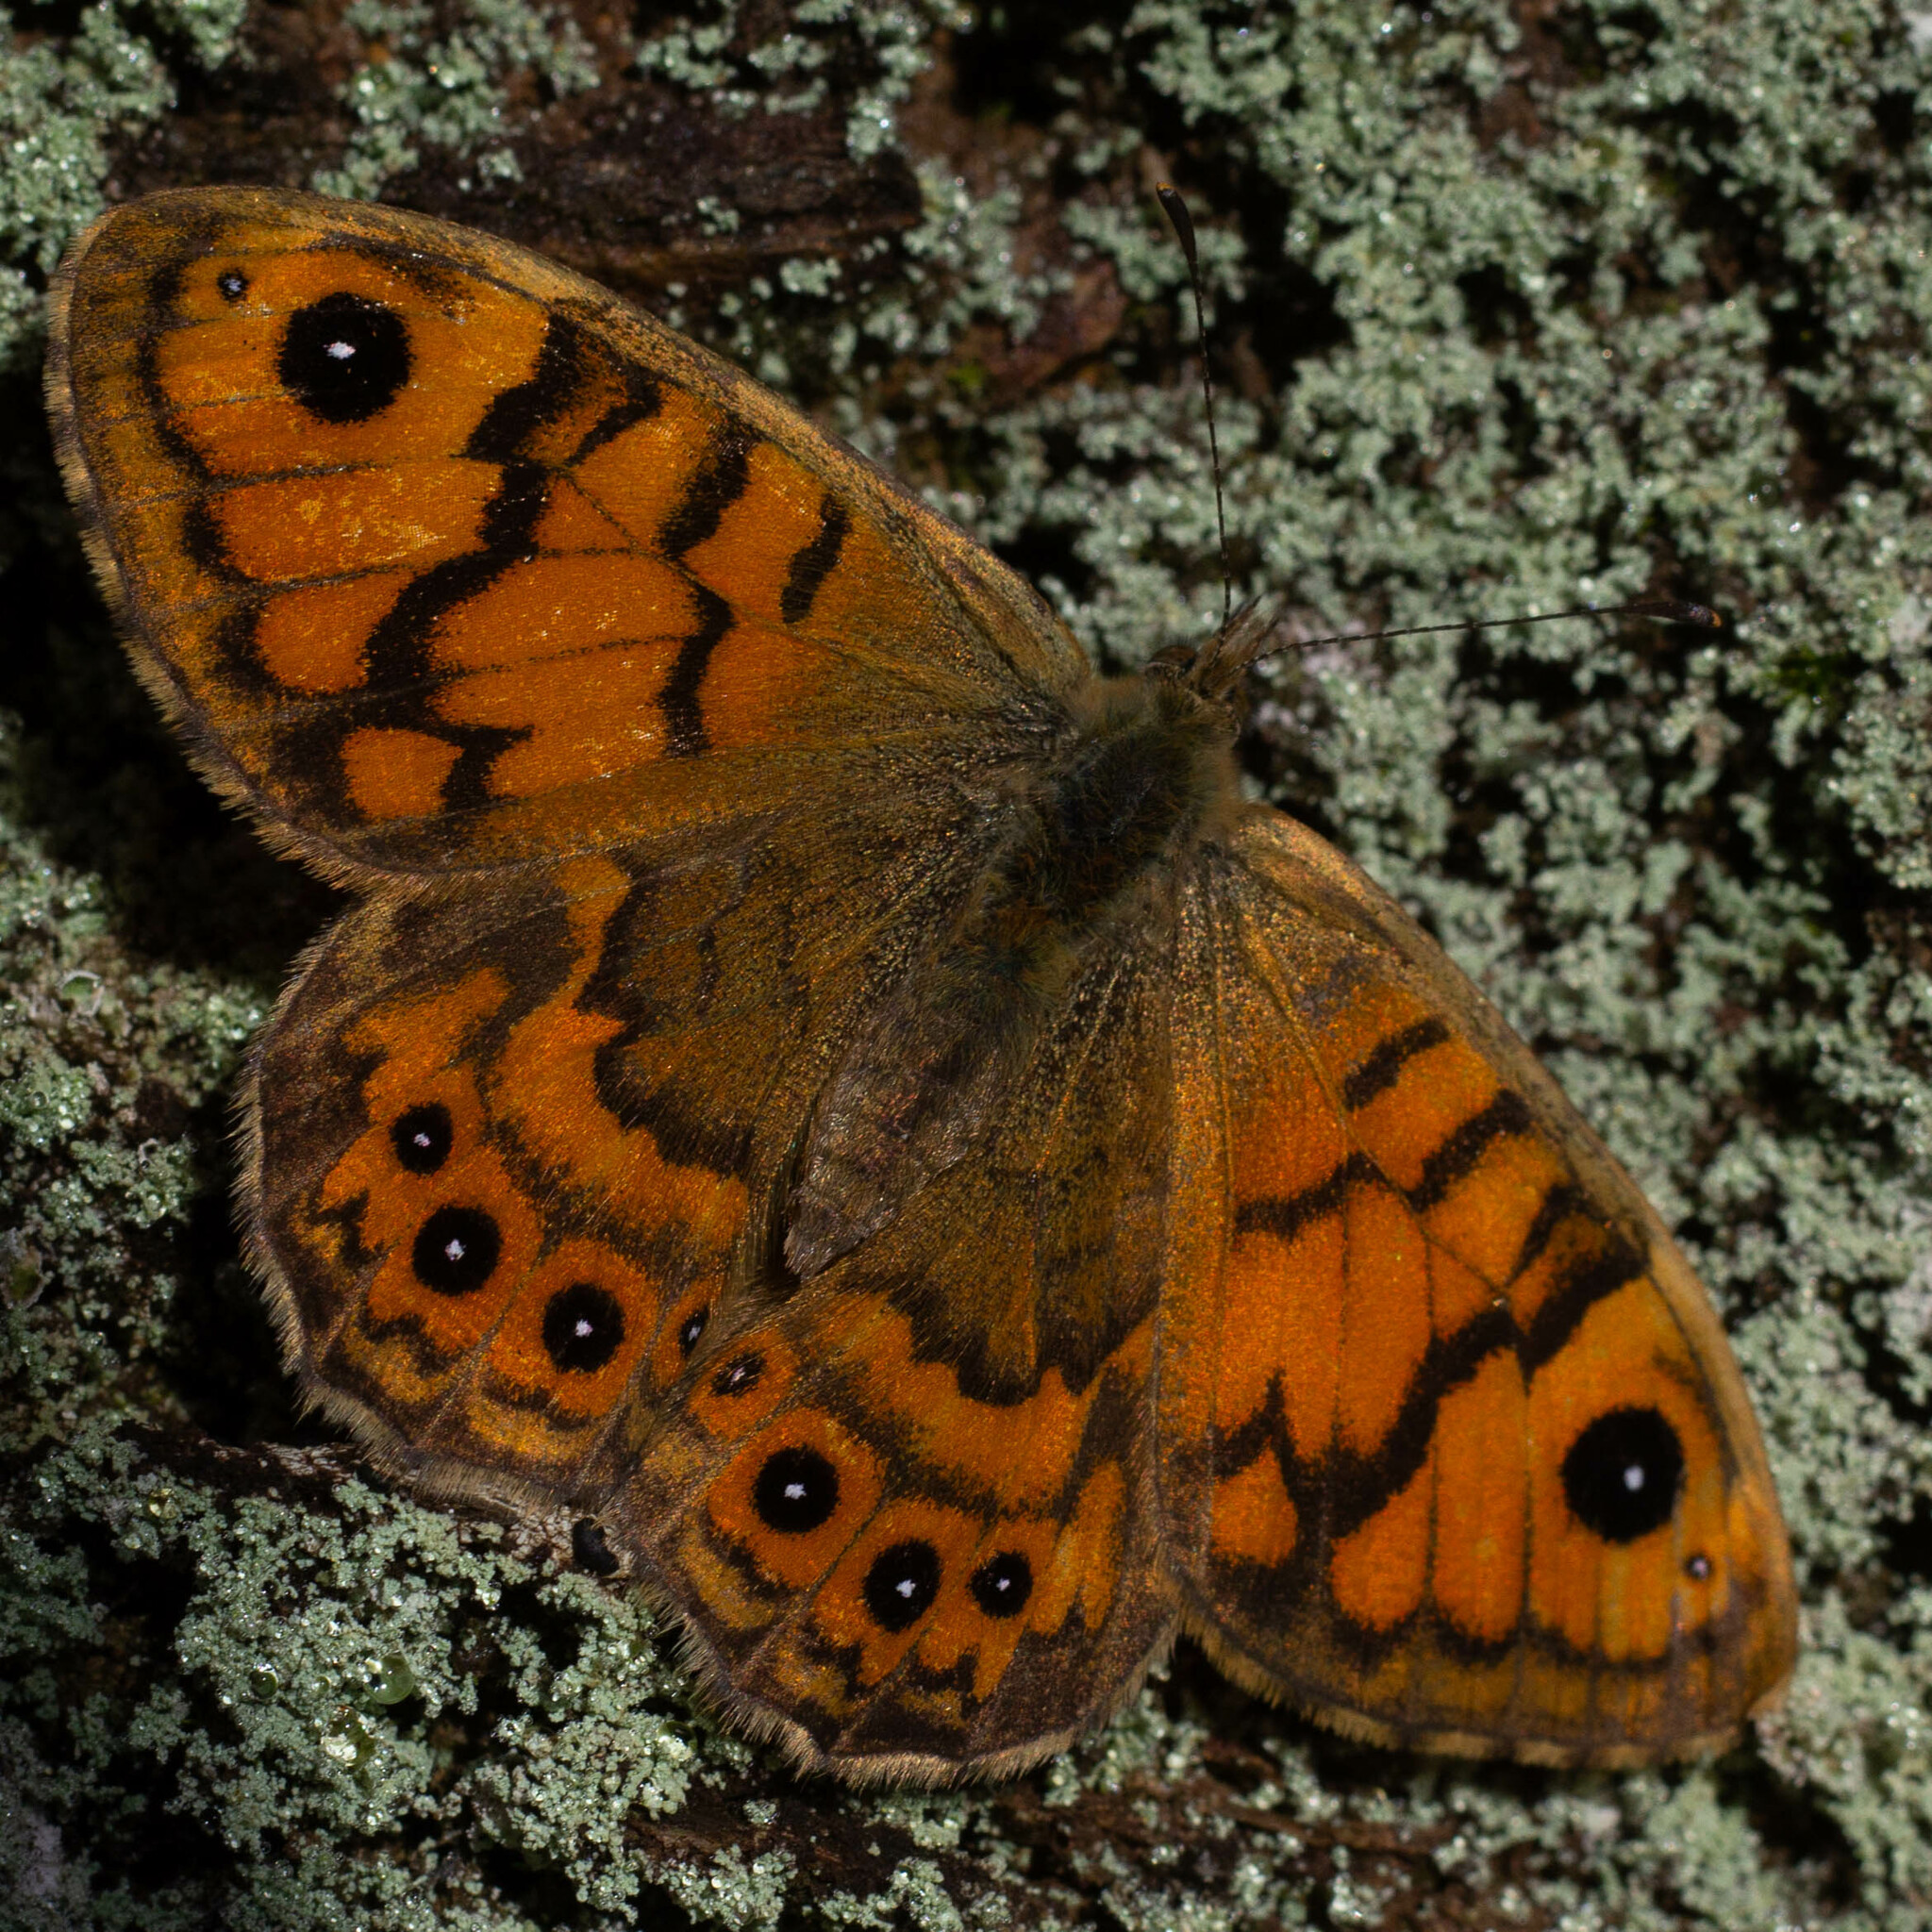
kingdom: Animalia
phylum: Arthropoda
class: Insecta
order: Lepidoptera
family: Nymphalidae
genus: Pararge
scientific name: Pararge Lasiommata megera
